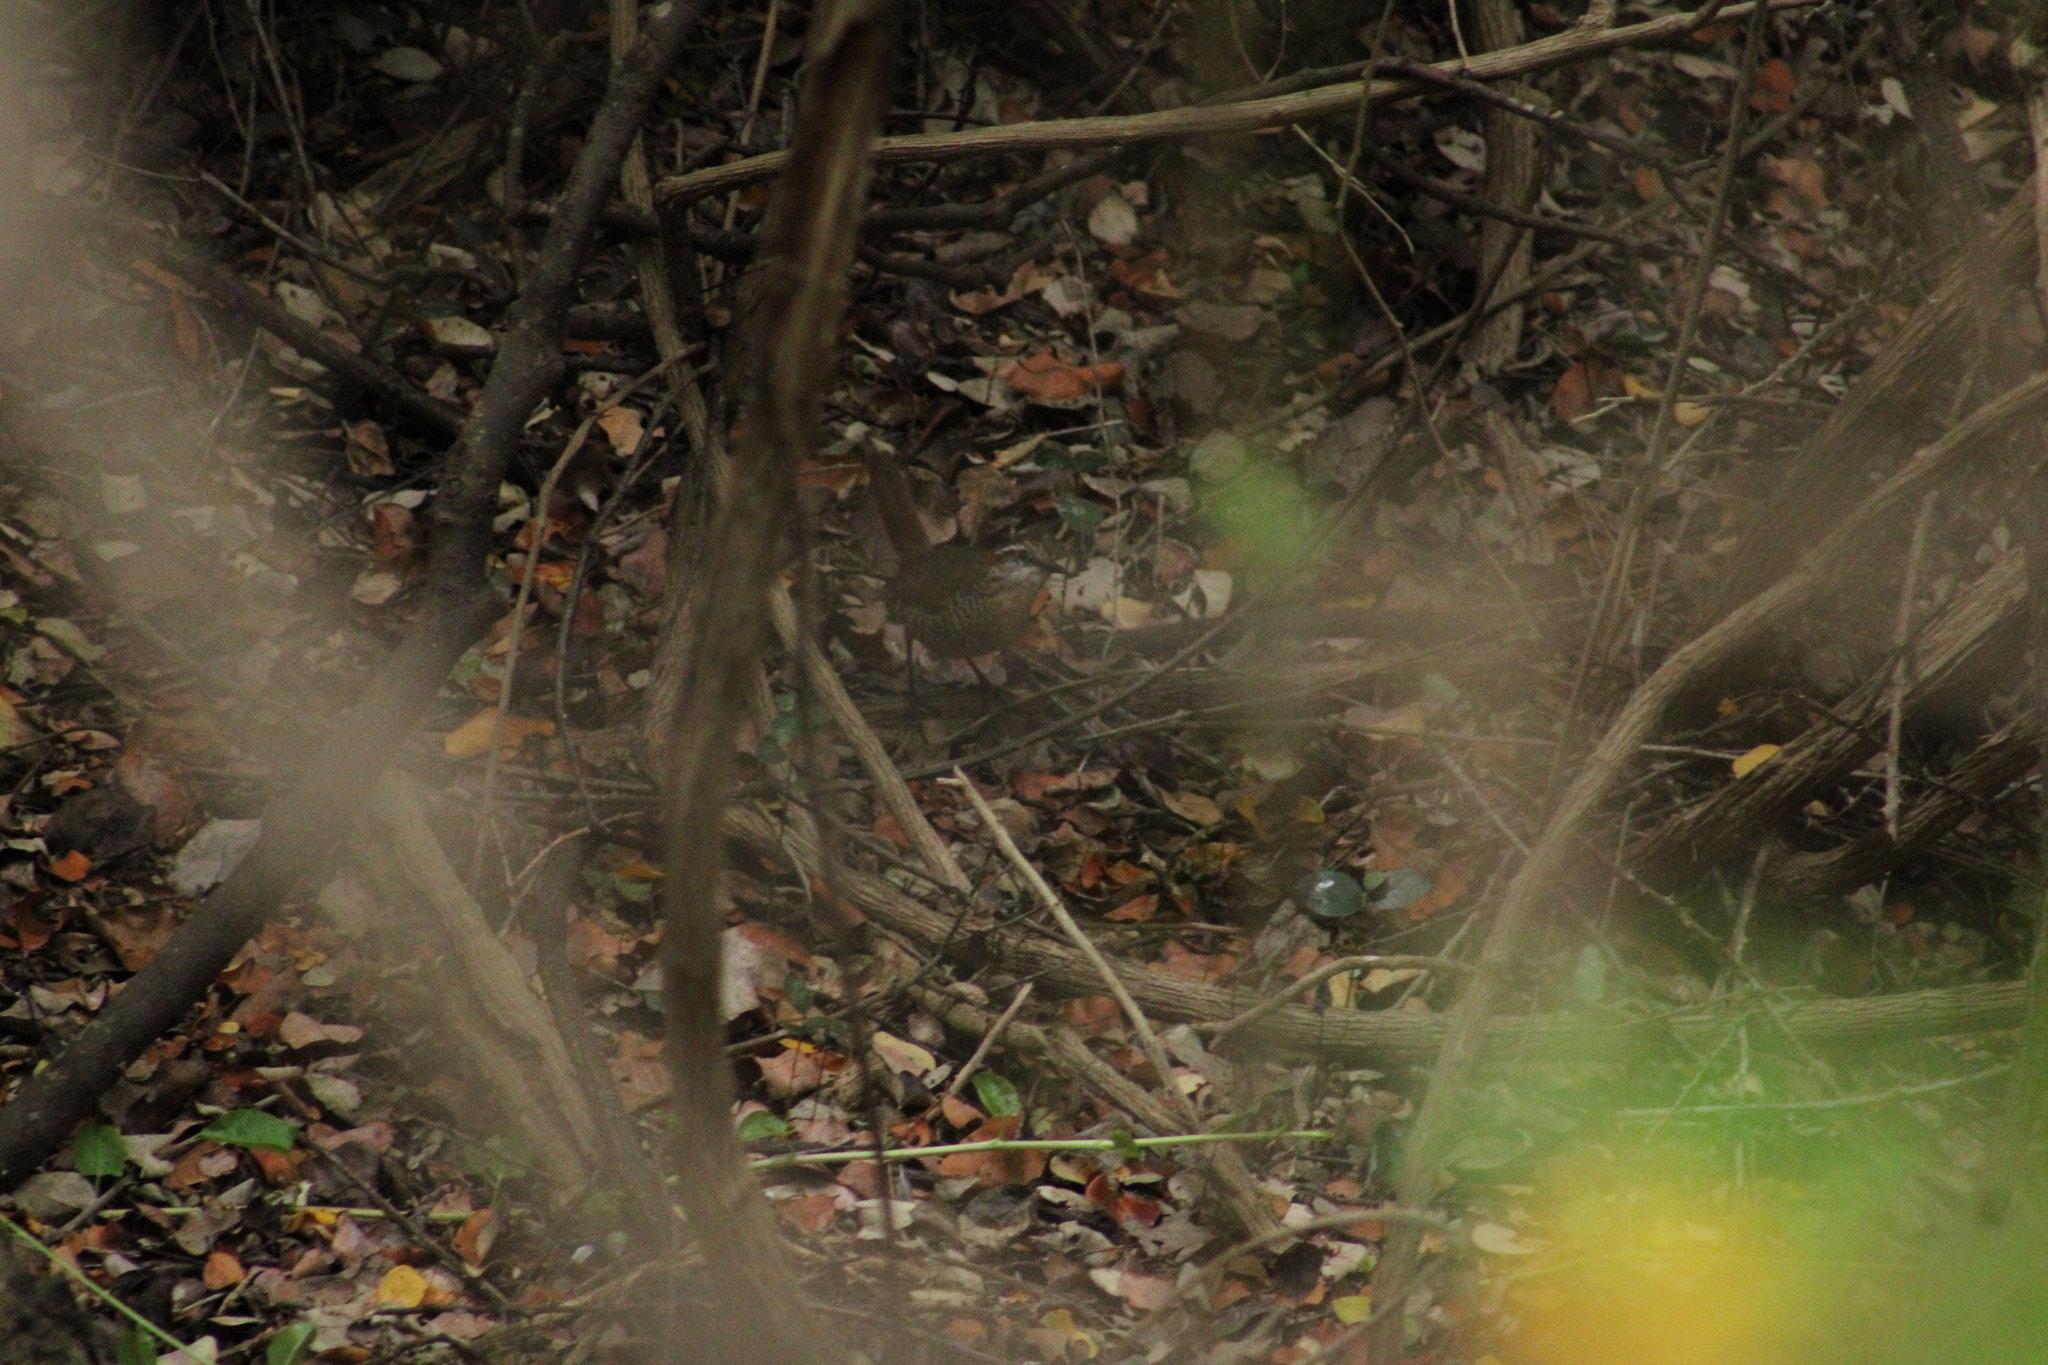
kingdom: Animalia
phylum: Chordata
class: Aves
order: Passeriformes
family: Rhinocryptidae
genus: Scelorchilus
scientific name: Scelorchilus albicollis
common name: White-throated tapaculo
